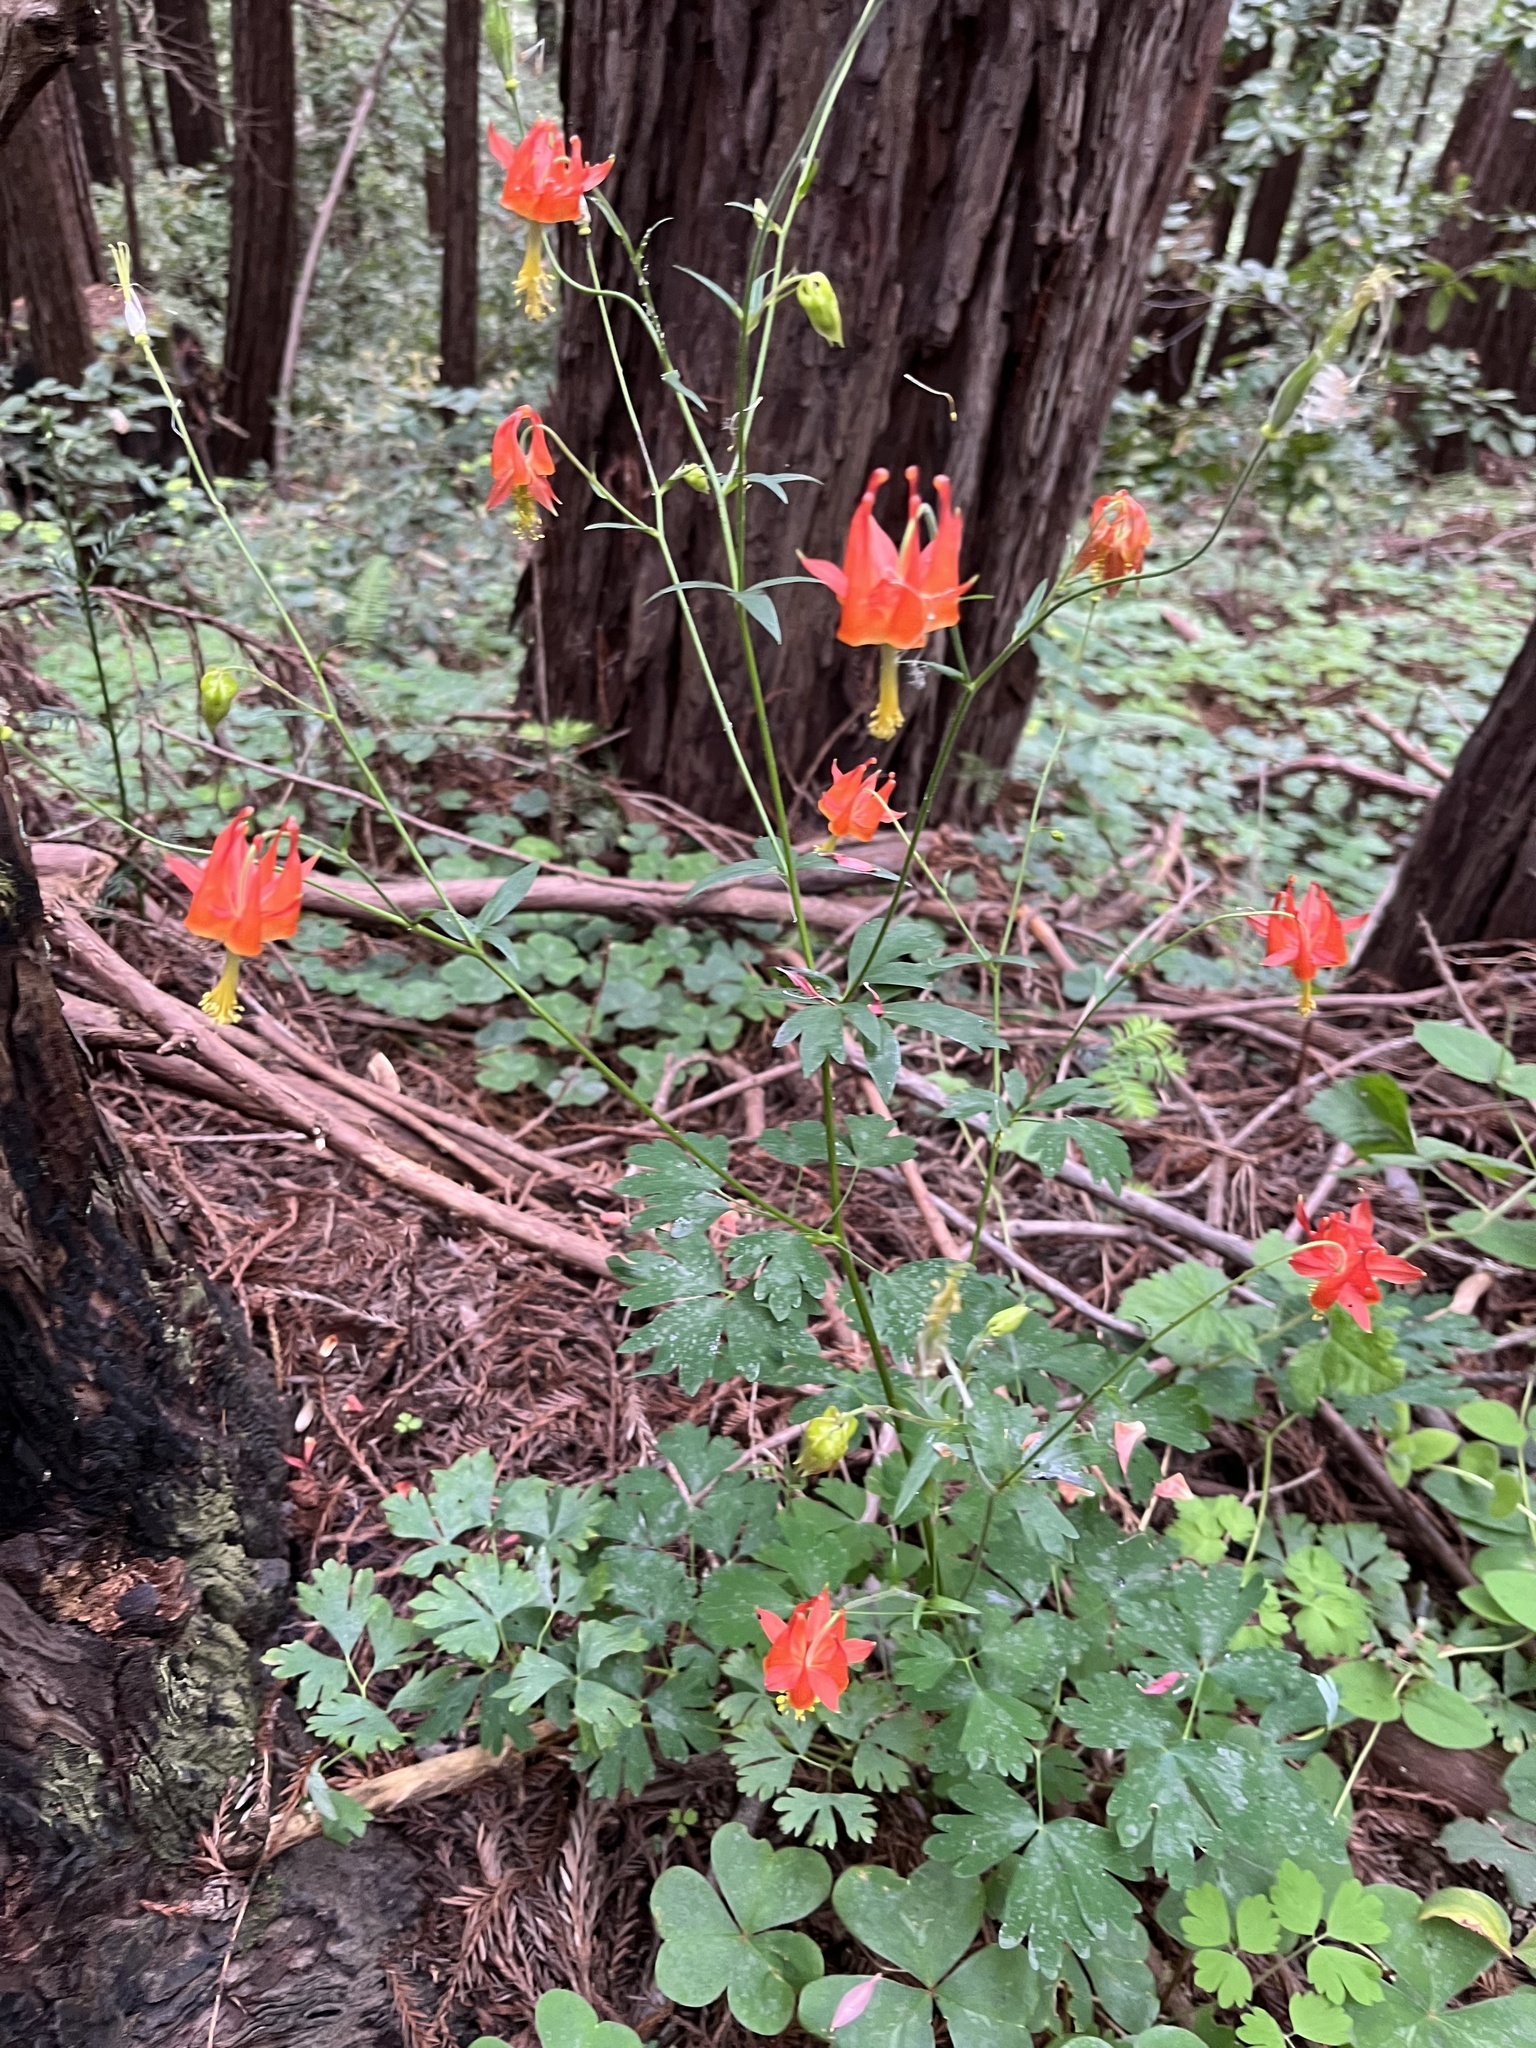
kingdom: Plantae
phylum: Tracheophyta
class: Magnoliopsida
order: Ranunculales
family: Ranunculaceae
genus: Aquilegia
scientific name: Aquilegia formosa
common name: Sitka columbine
